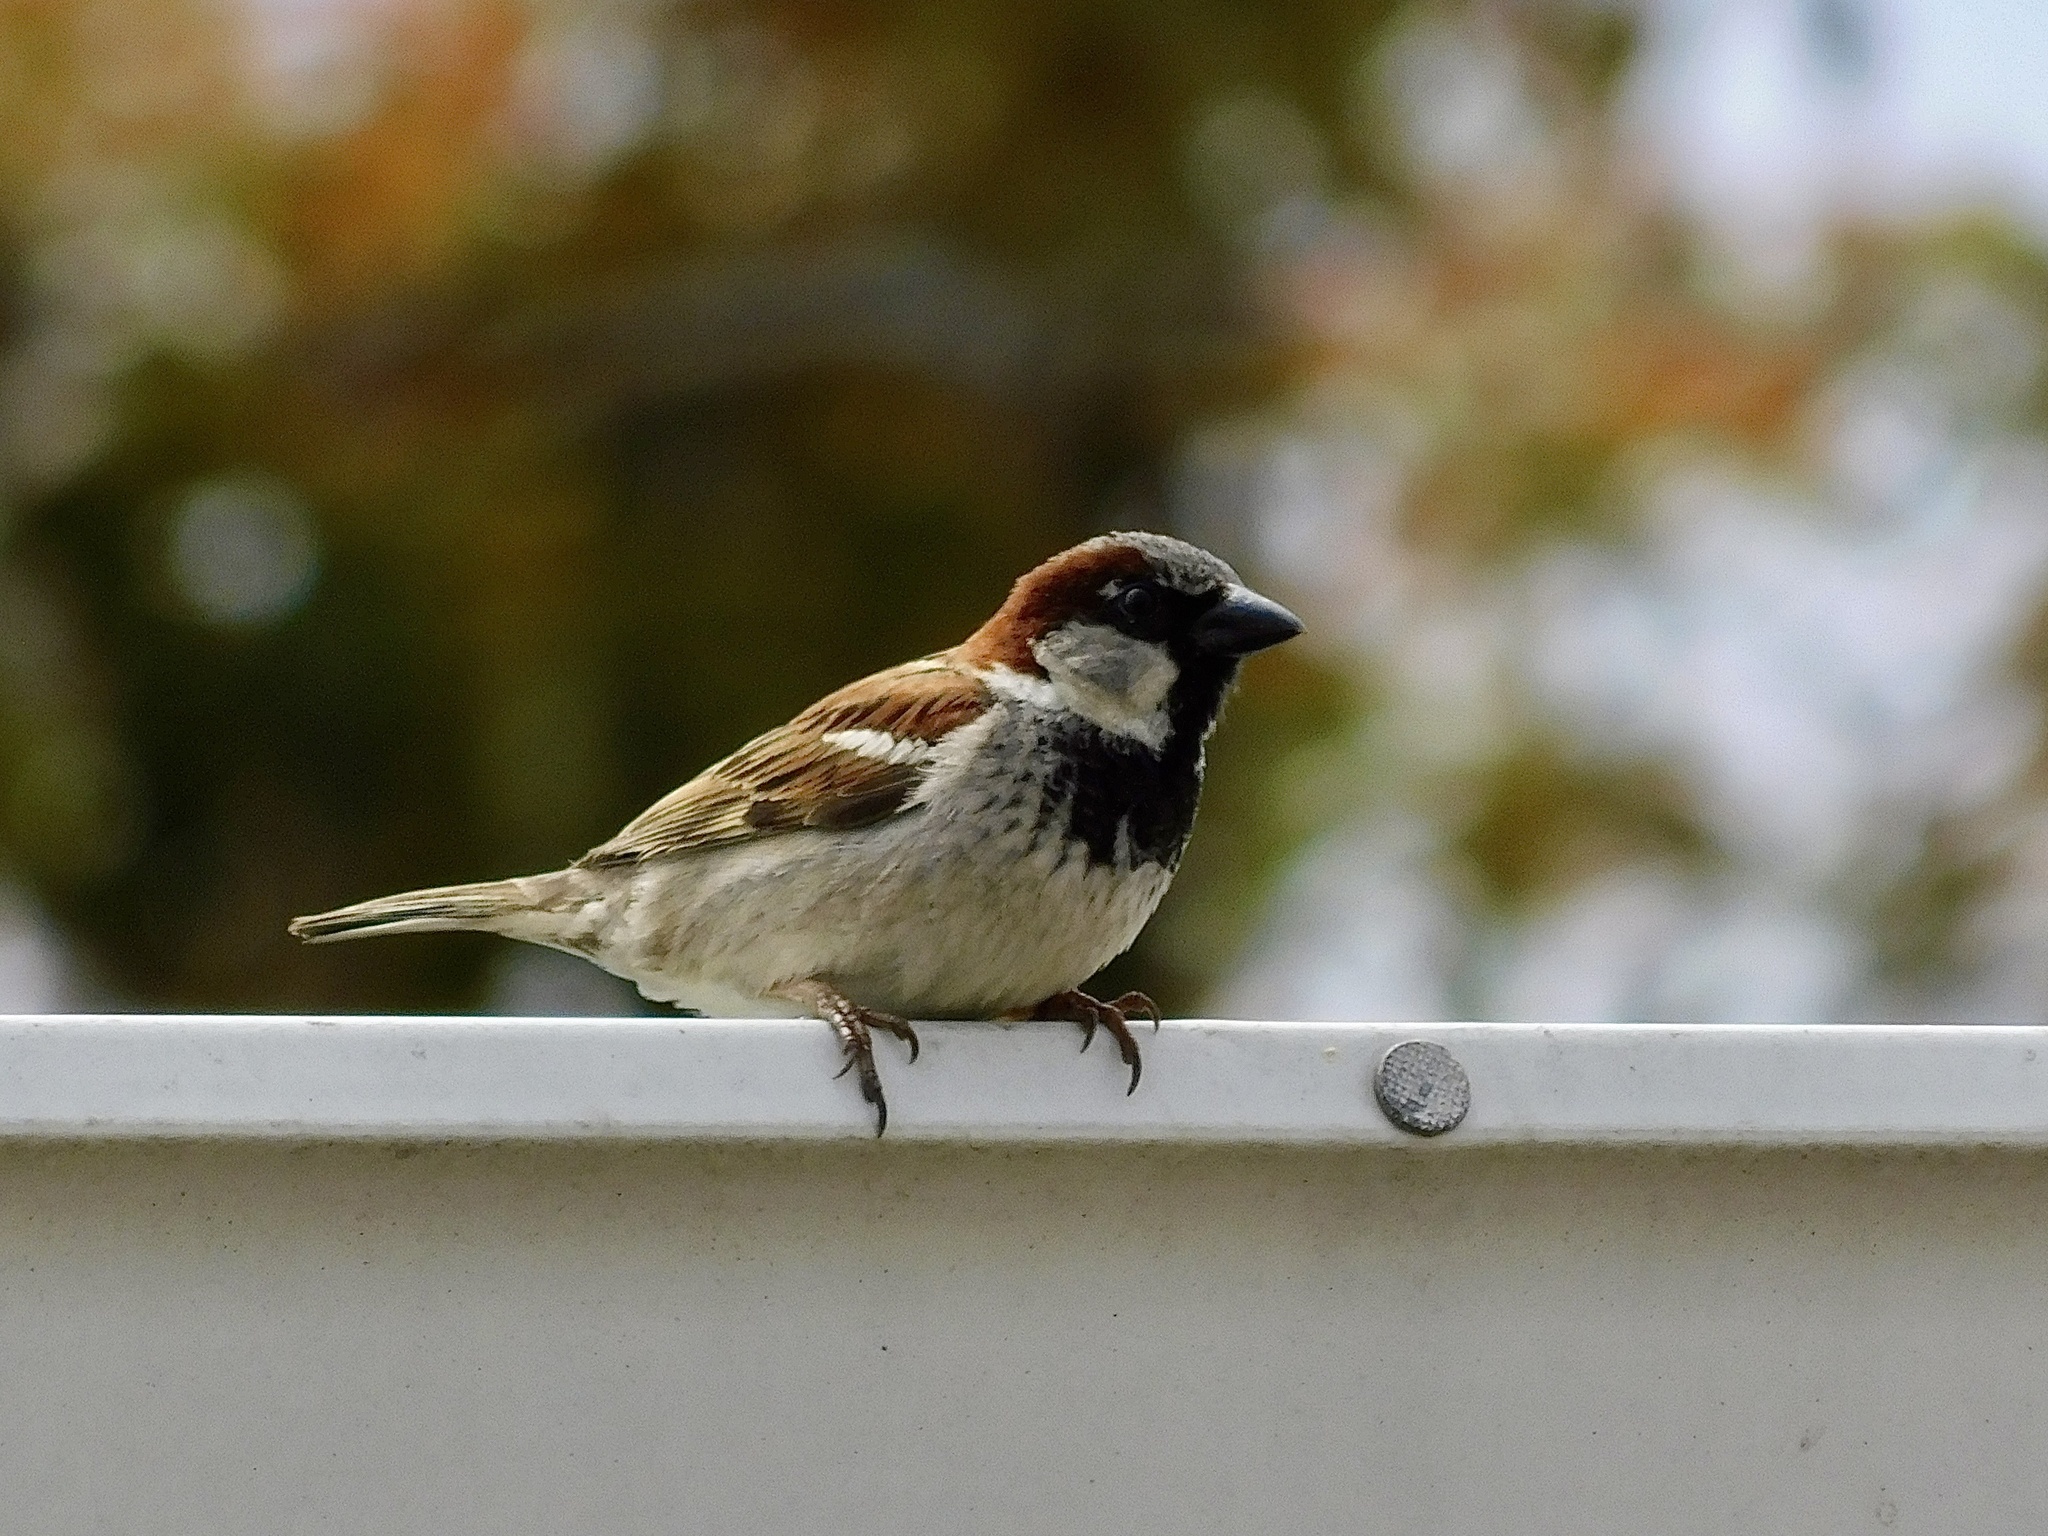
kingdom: Animalia
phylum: Chordata
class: Aves
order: Passeriformes
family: Passeridae
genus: Passer
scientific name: Passer domesticus
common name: House sparrow
